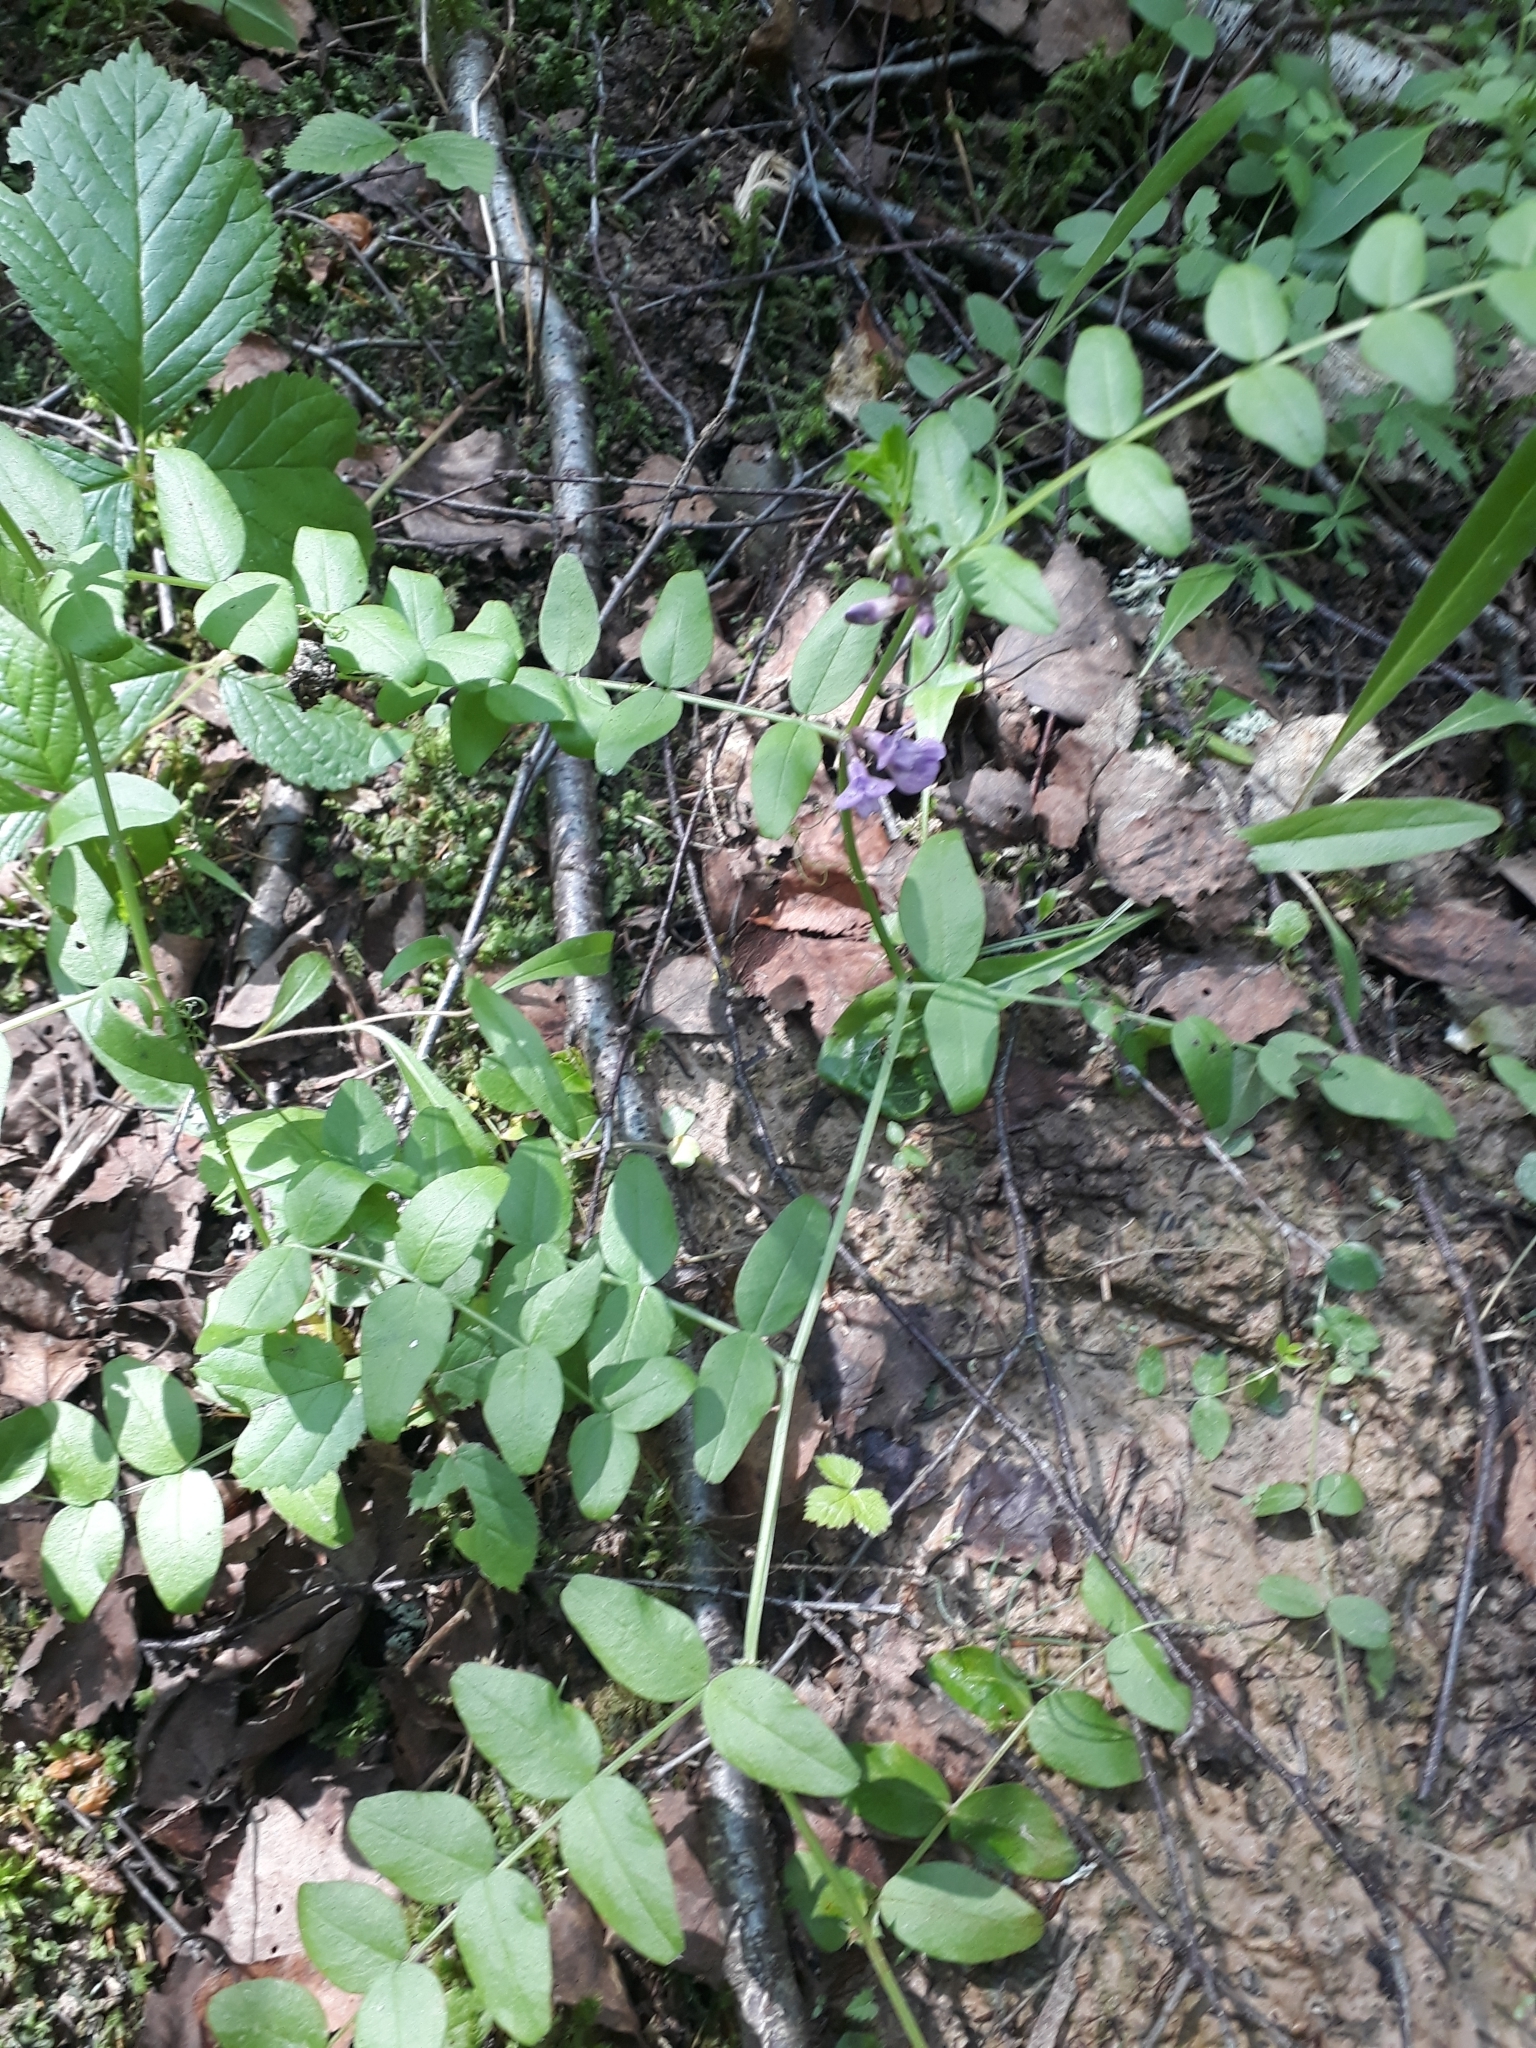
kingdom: Plantae
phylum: Tracheophyta
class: Magnoliopsida
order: Fabales
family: Fabaceae
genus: Vicia
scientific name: Vicia sepium
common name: Bush vetch
